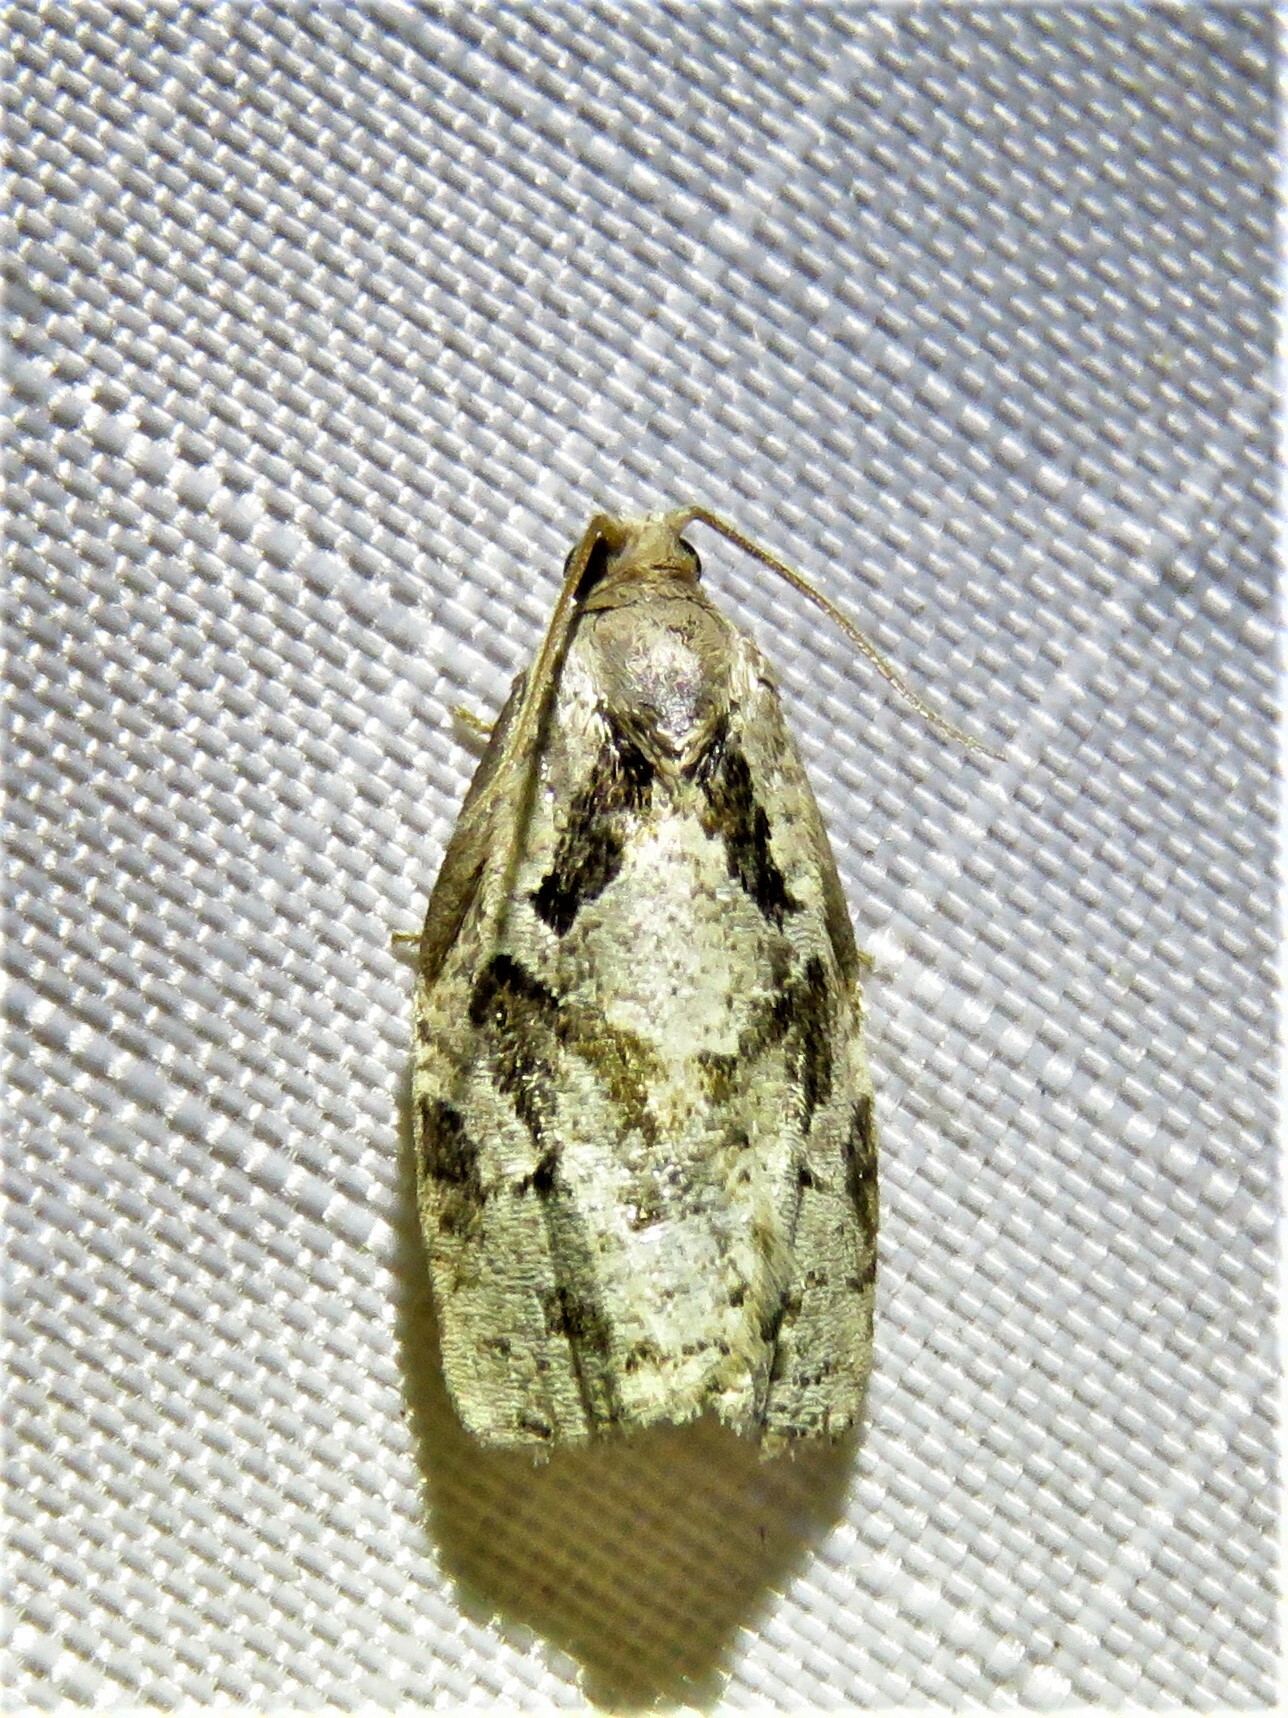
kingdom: Animalia
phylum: Arthropoda
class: Insecta
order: Lepidoptera
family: Tortricidae
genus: Archips
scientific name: Archips grisea
